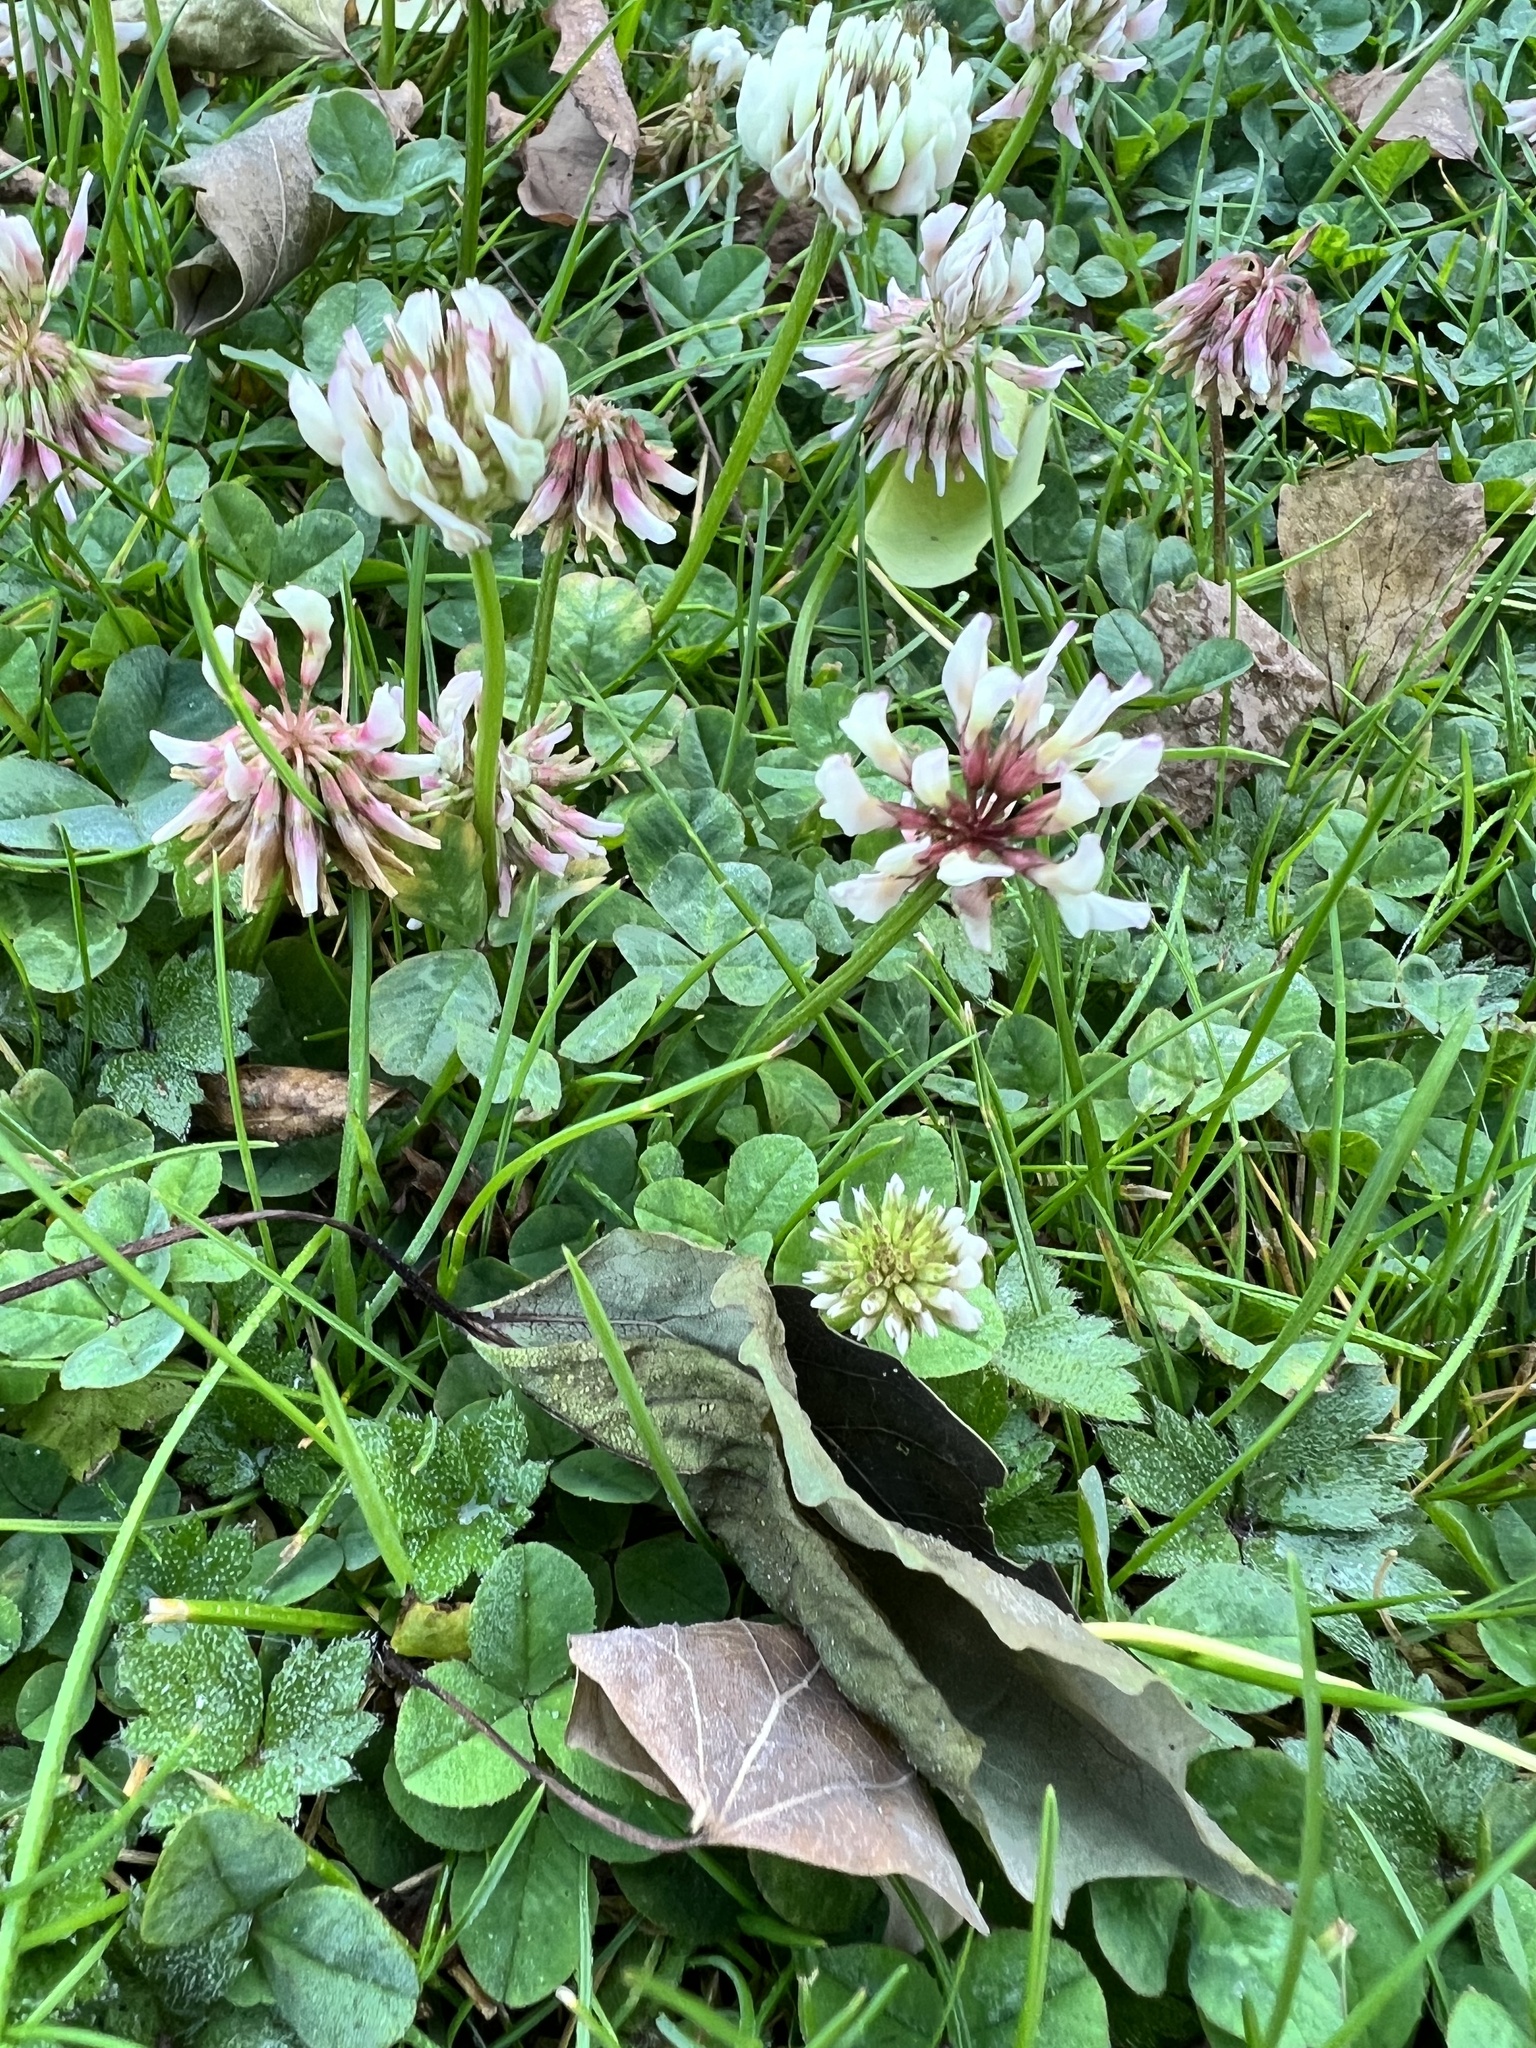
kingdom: Plantae
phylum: Tracheophyta
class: Magnoliopsida
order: Fabales
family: Fabaceae
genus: Trifolium
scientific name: Trifolium repens
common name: White clover
